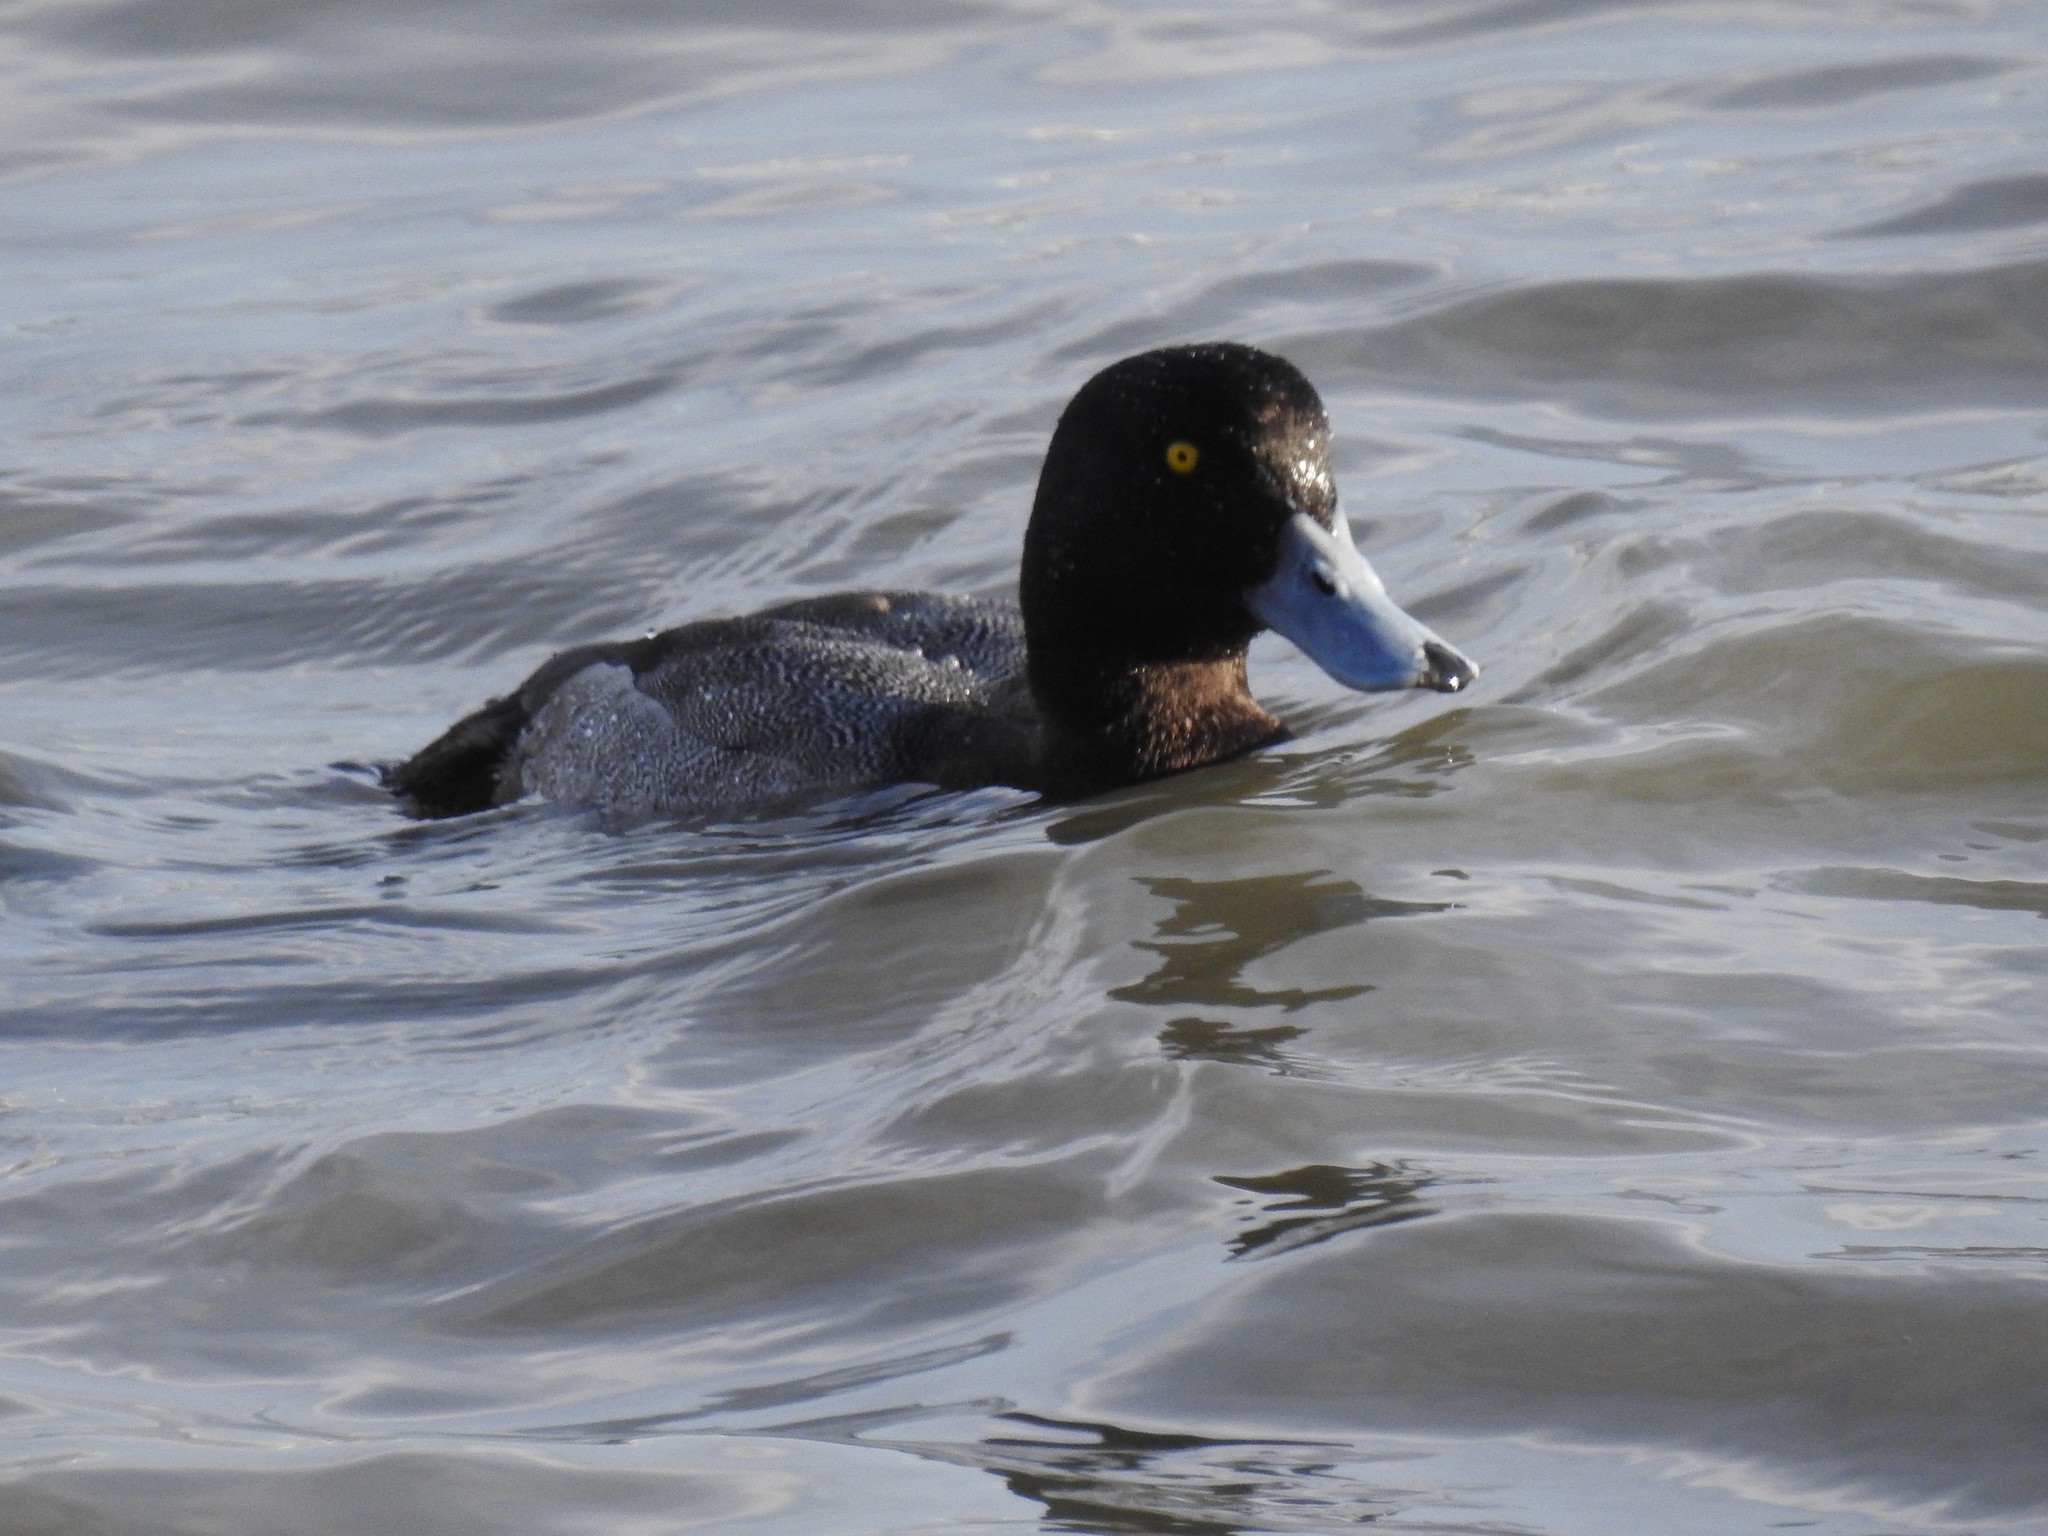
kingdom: Animalia
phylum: Chordata
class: Aves
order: Anseriformes
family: Anatidae
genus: Aythya
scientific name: Aythya marila
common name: Greater scaup
